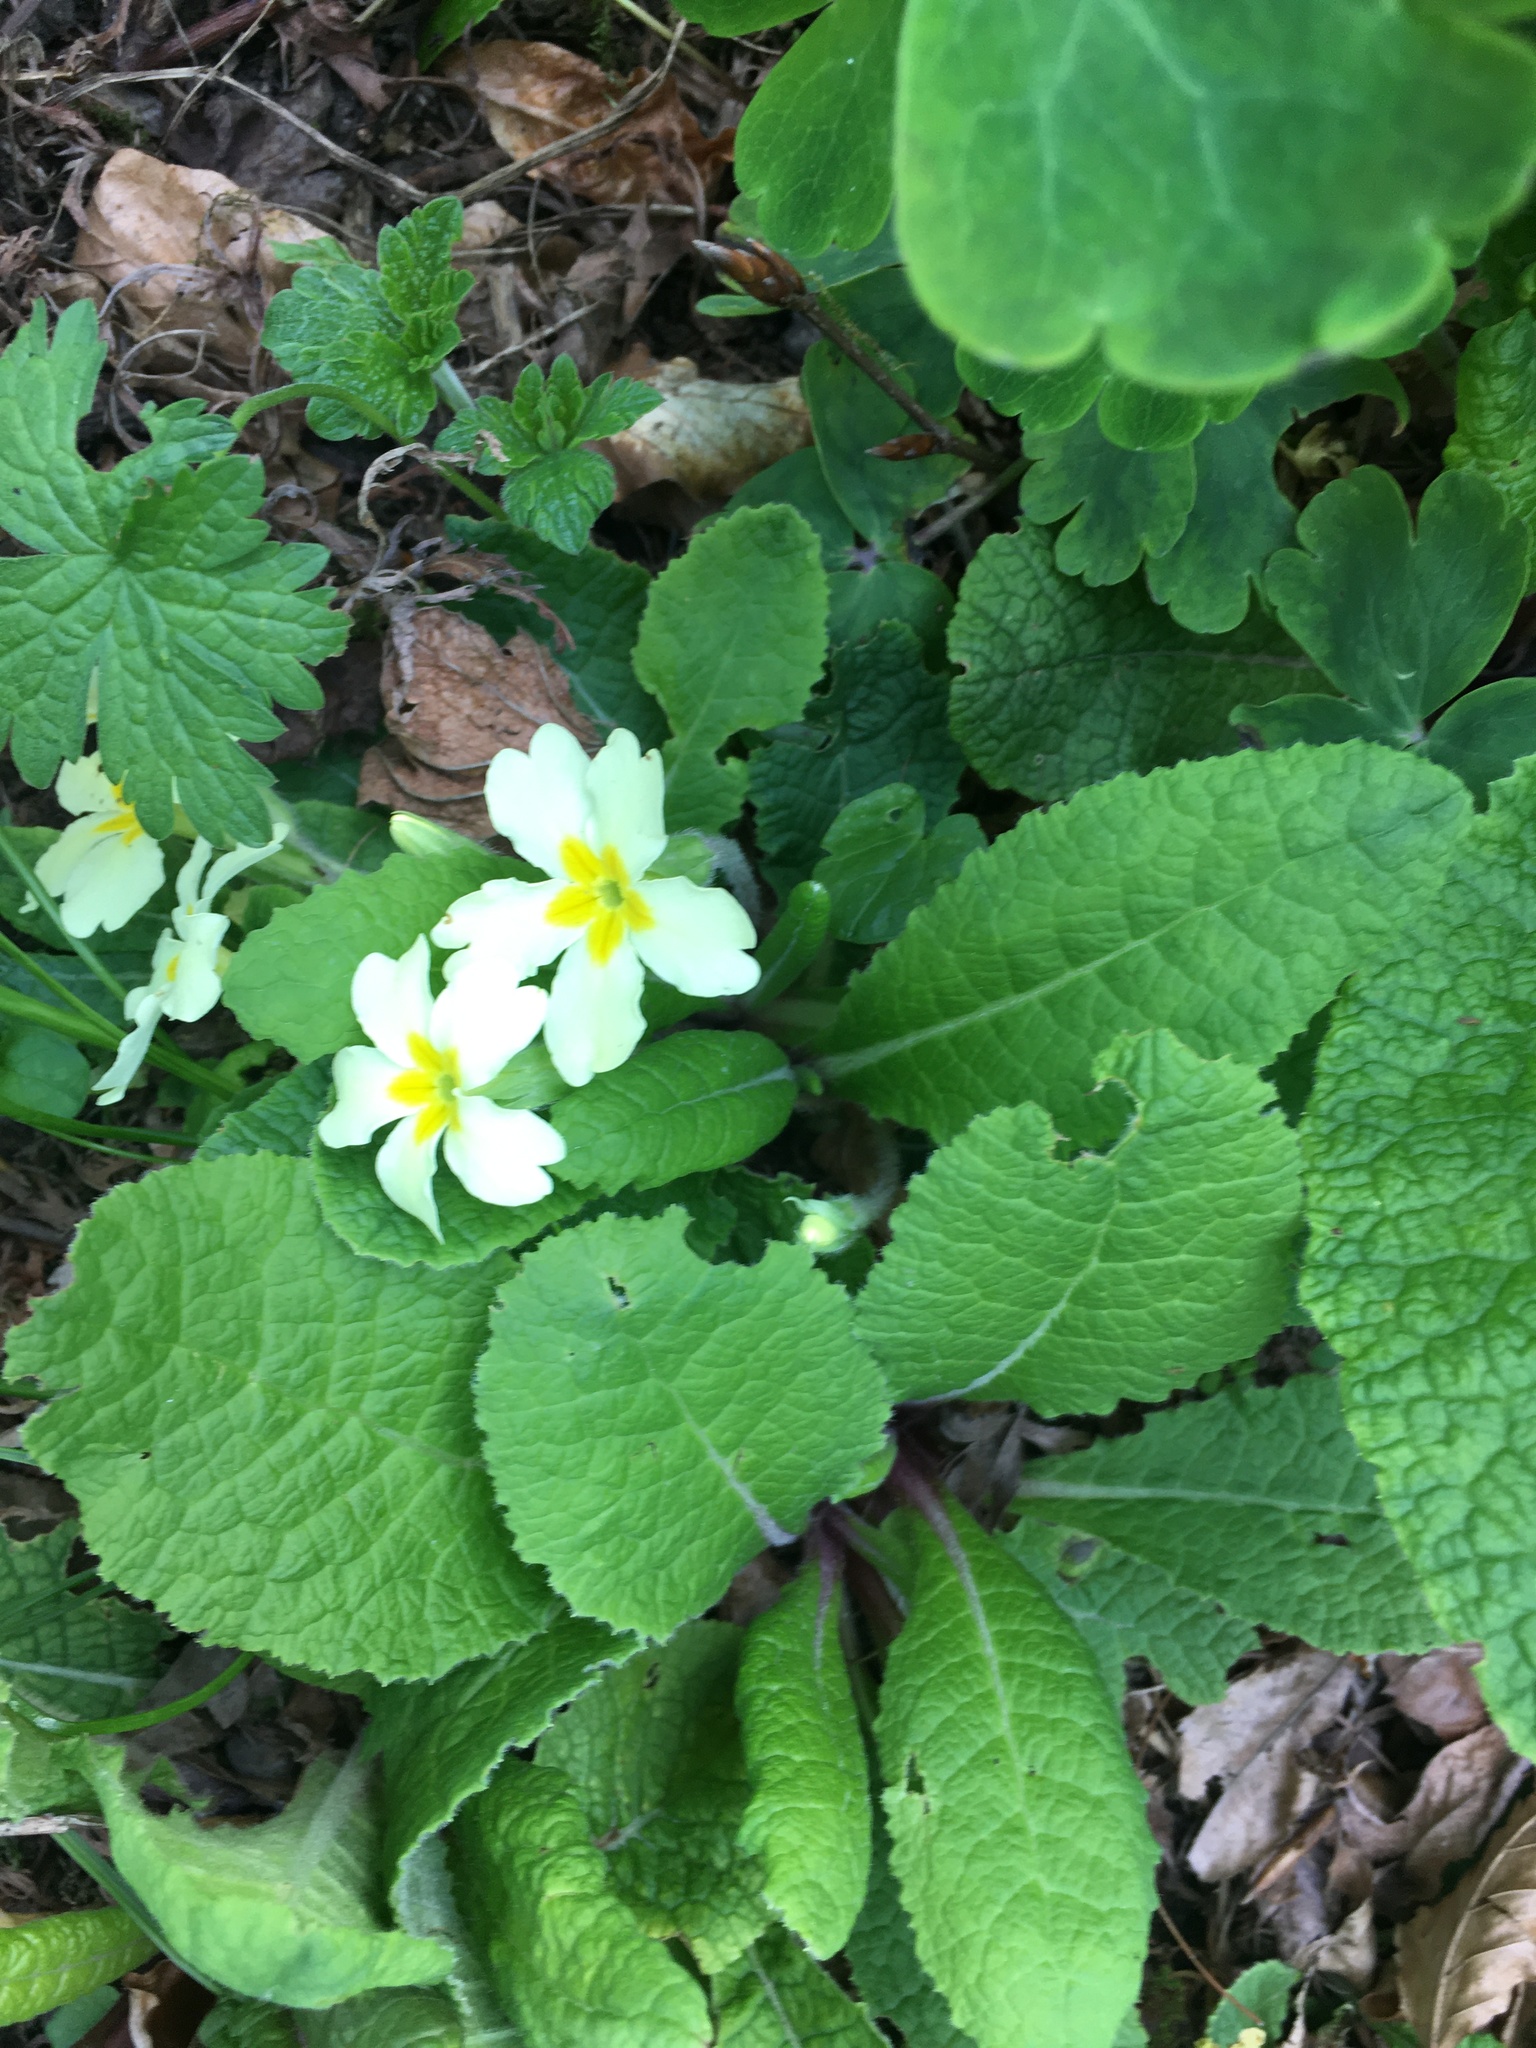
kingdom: Plantae
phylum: Tracheophyta
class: Magnoliopsida
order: Ericales
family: Primulaceae
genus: Primula
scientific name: Primula vulgaris
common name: Primrose
